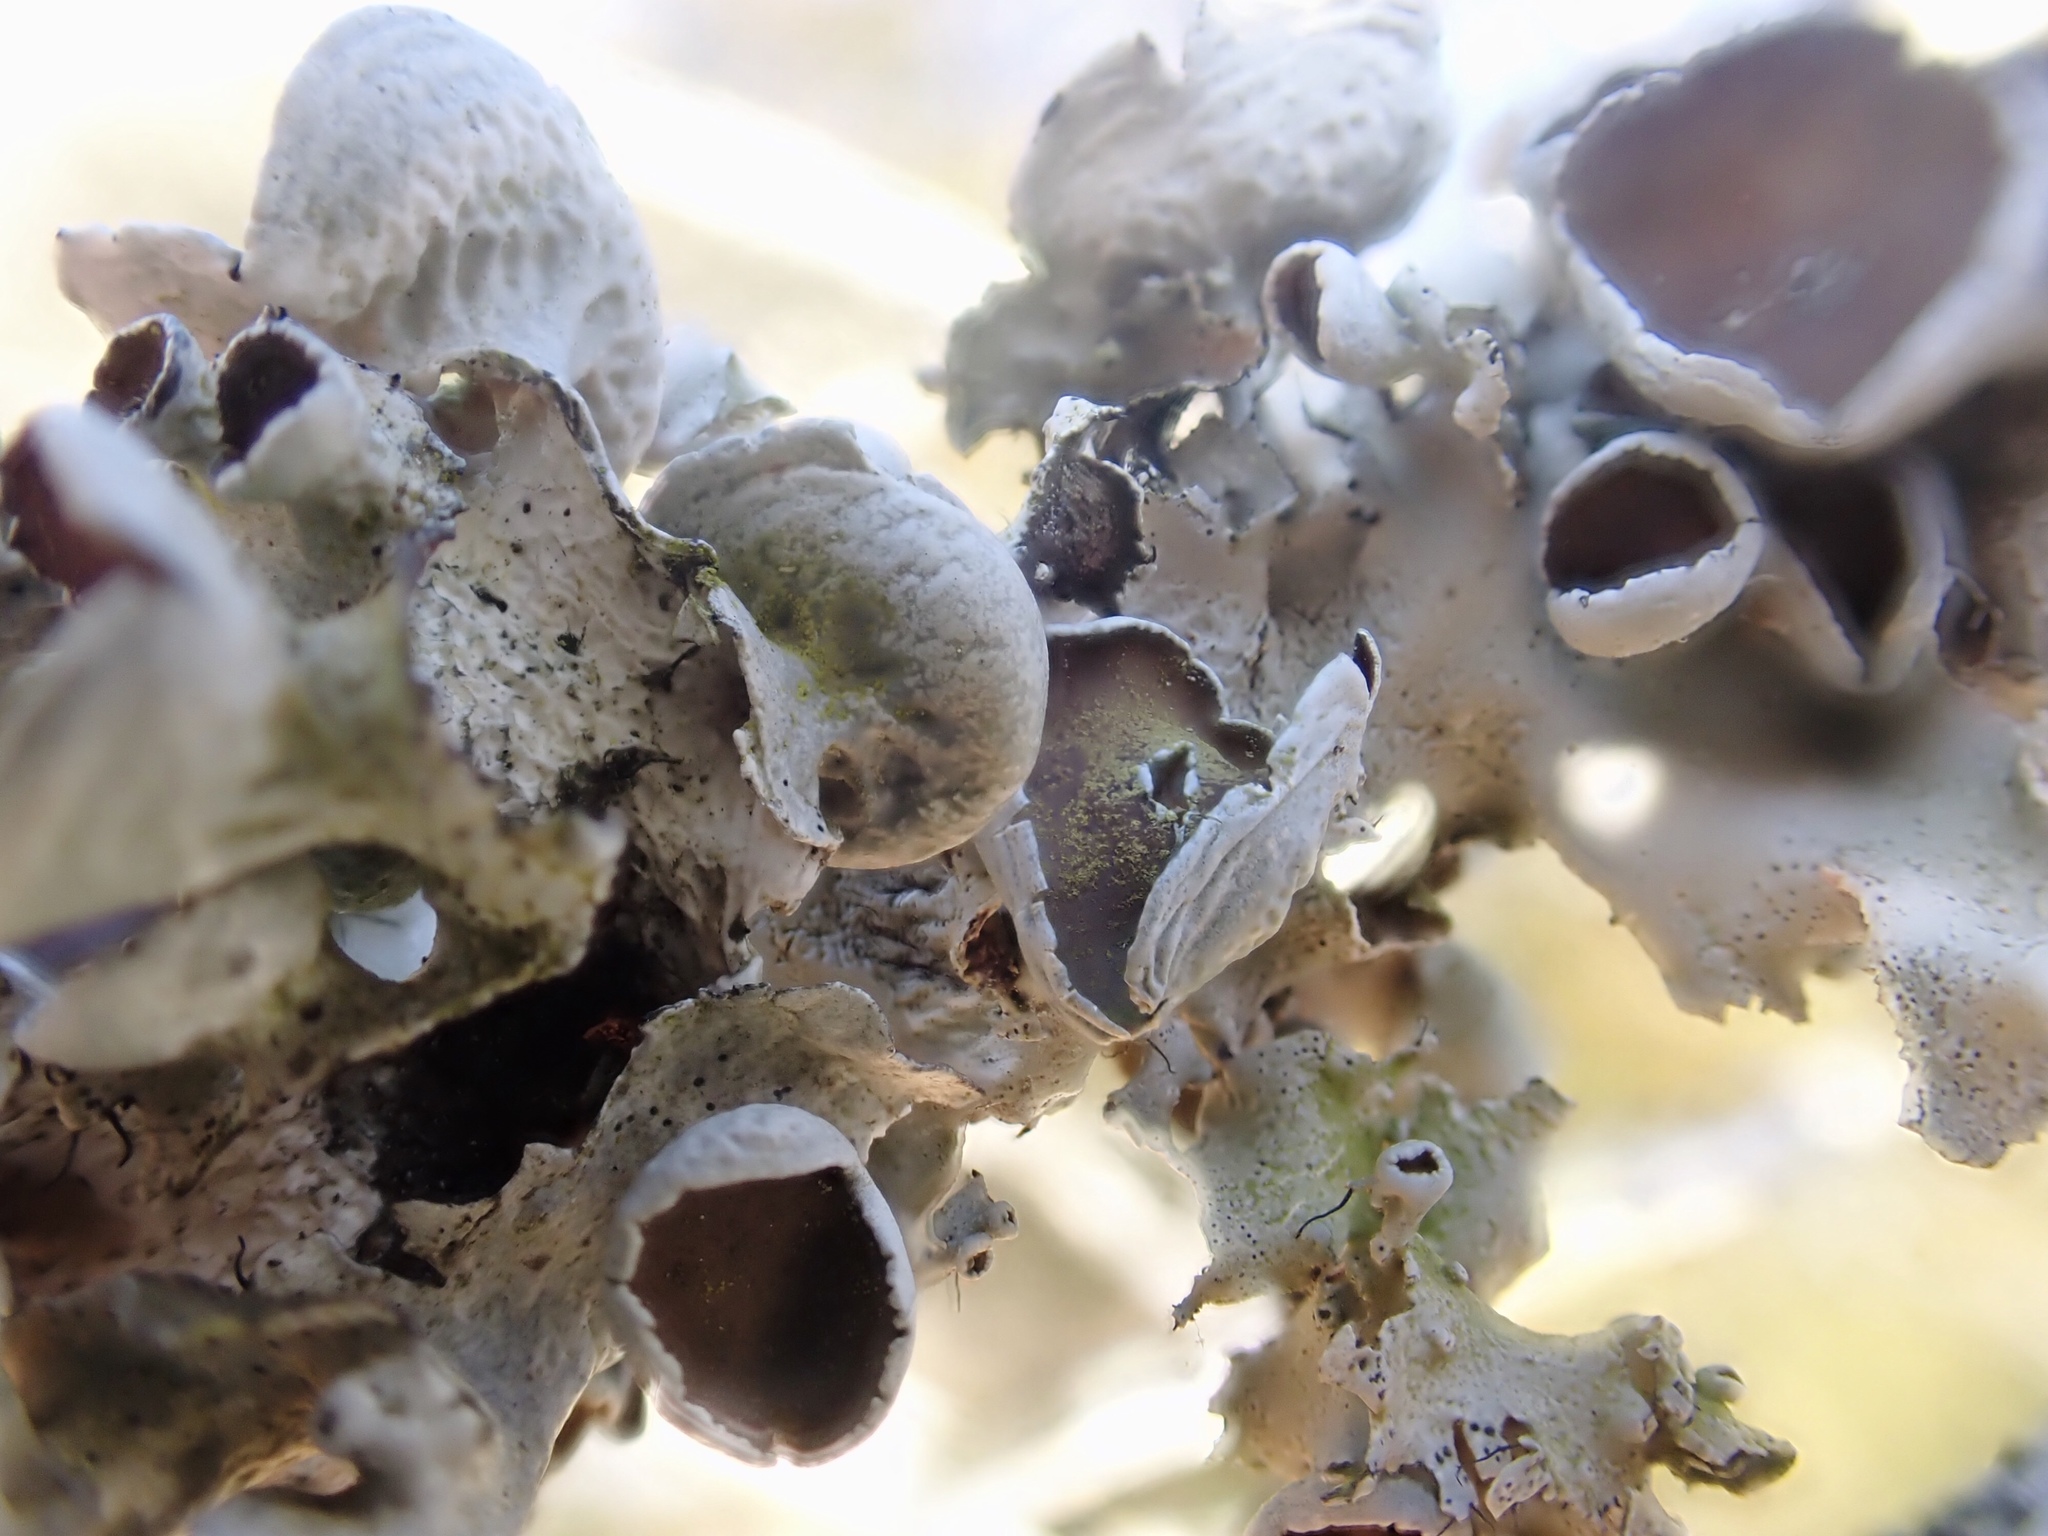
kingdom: Fungi
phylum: Ascomycota
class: Lecanoromycetes
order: Lecanorales
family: Parmeliaceae
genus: Parmotrema
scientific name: Parmotrema perforatum
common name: Perforated ruffle lichen
